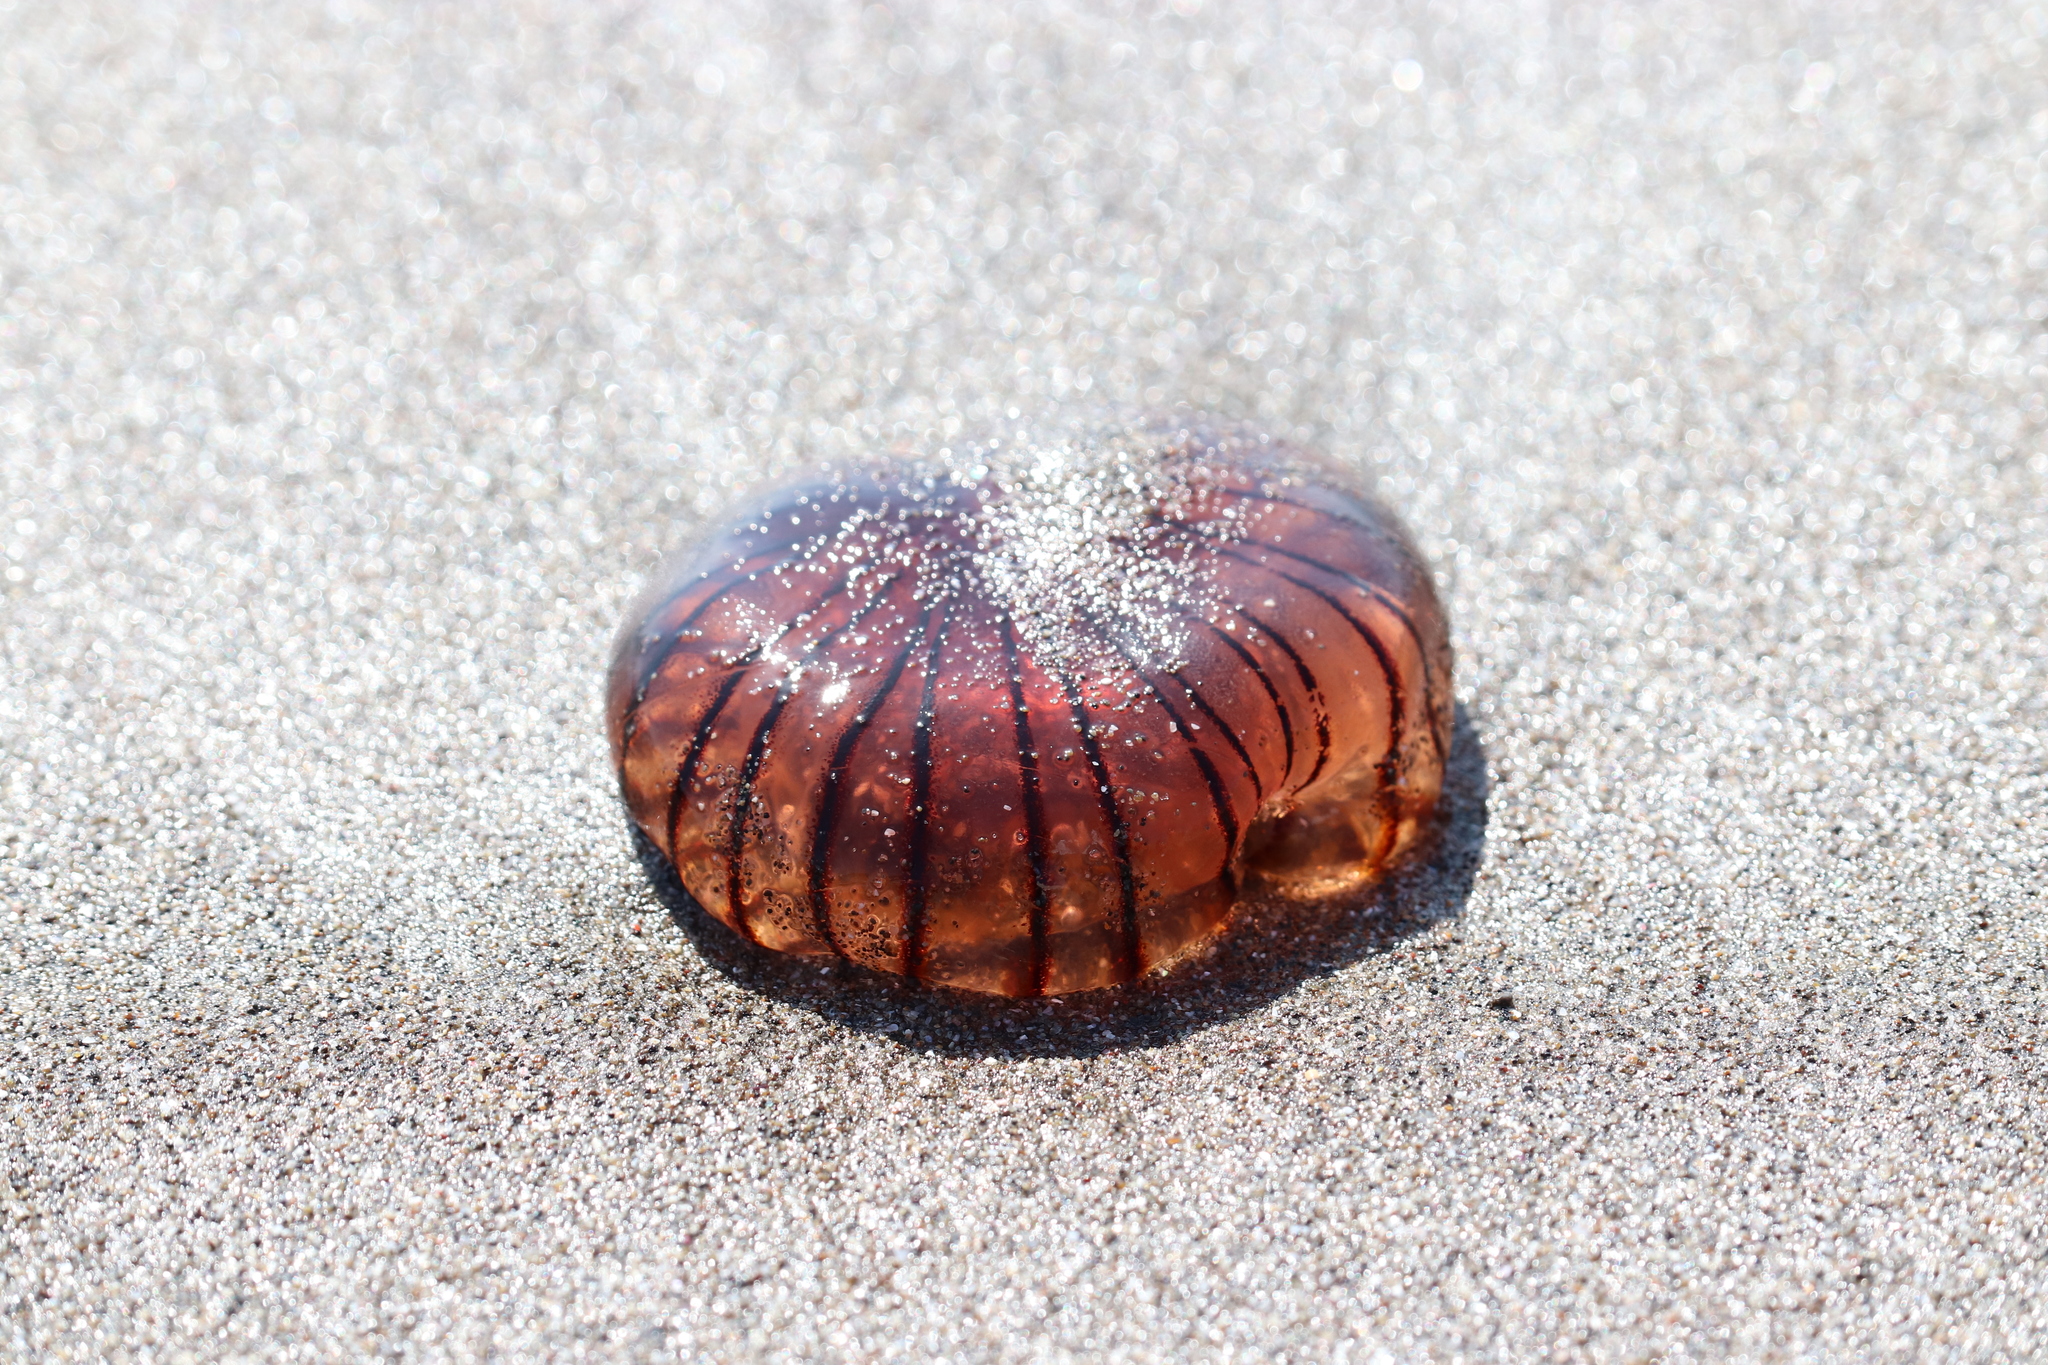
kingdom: Animalia
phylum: Cnidaria
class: Scyphozoa
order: Semaeostomeae
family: Pelagiidae
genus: Chrysaora
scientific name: Chrysaora pacifica
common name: Sea nettle
